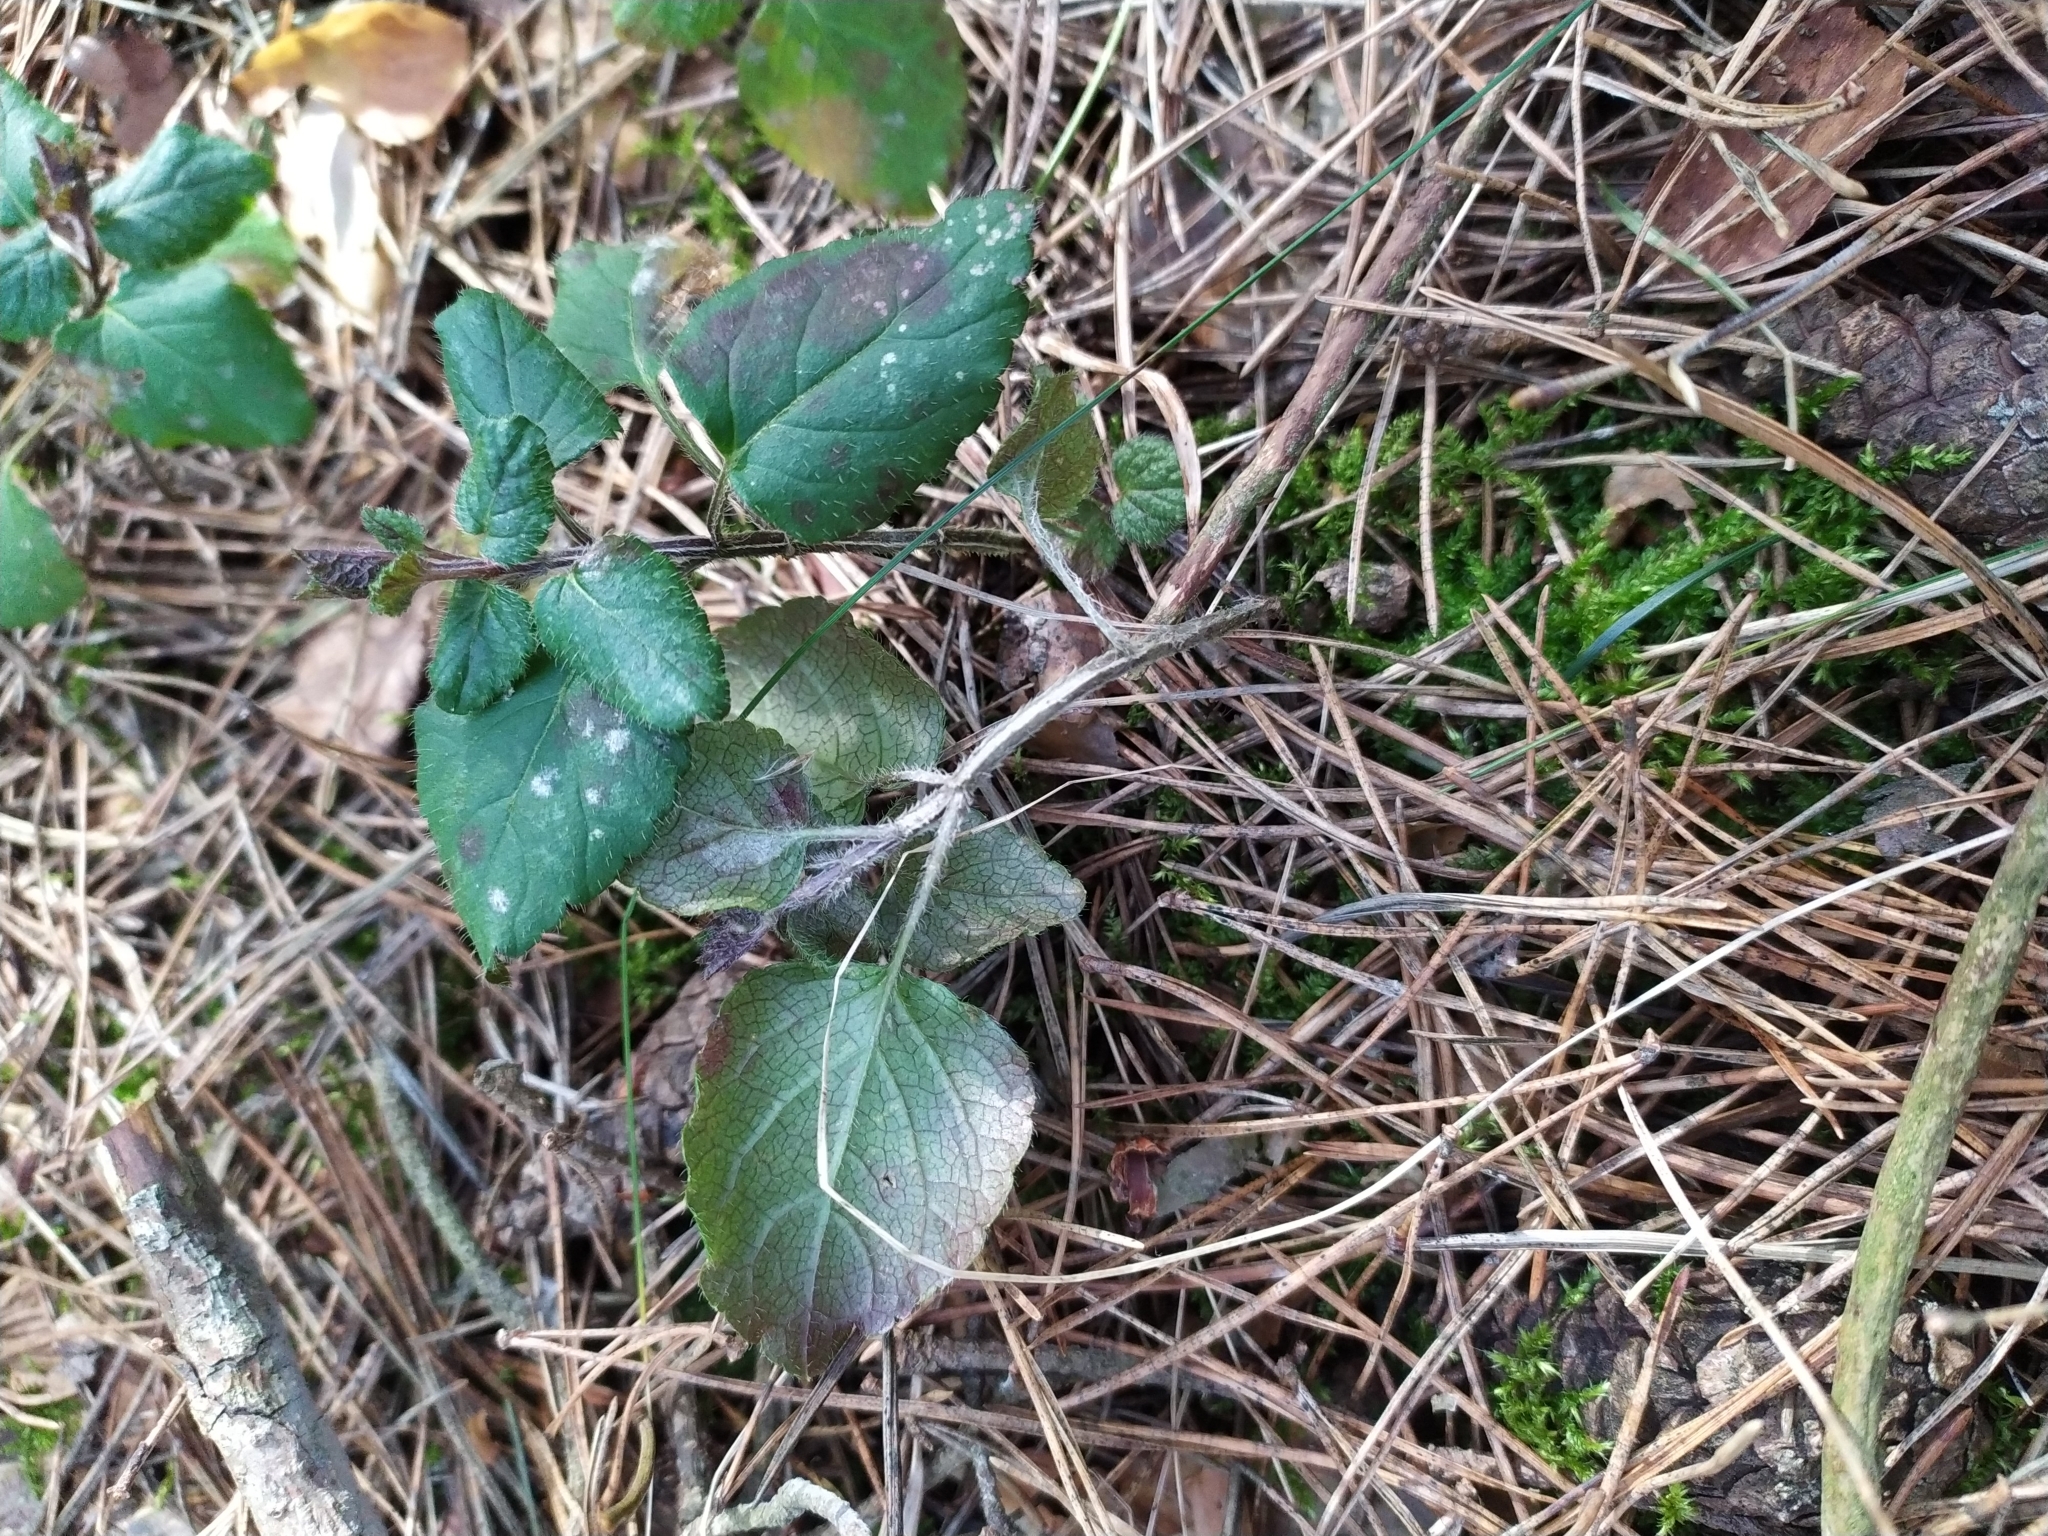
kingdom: Plantae
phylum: Tracheophyta
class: Magnoliopsida
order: Lamiales
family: Lamiaceae
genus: Lamium
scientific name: Lamium galeobdolon
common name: Yellow archangel
